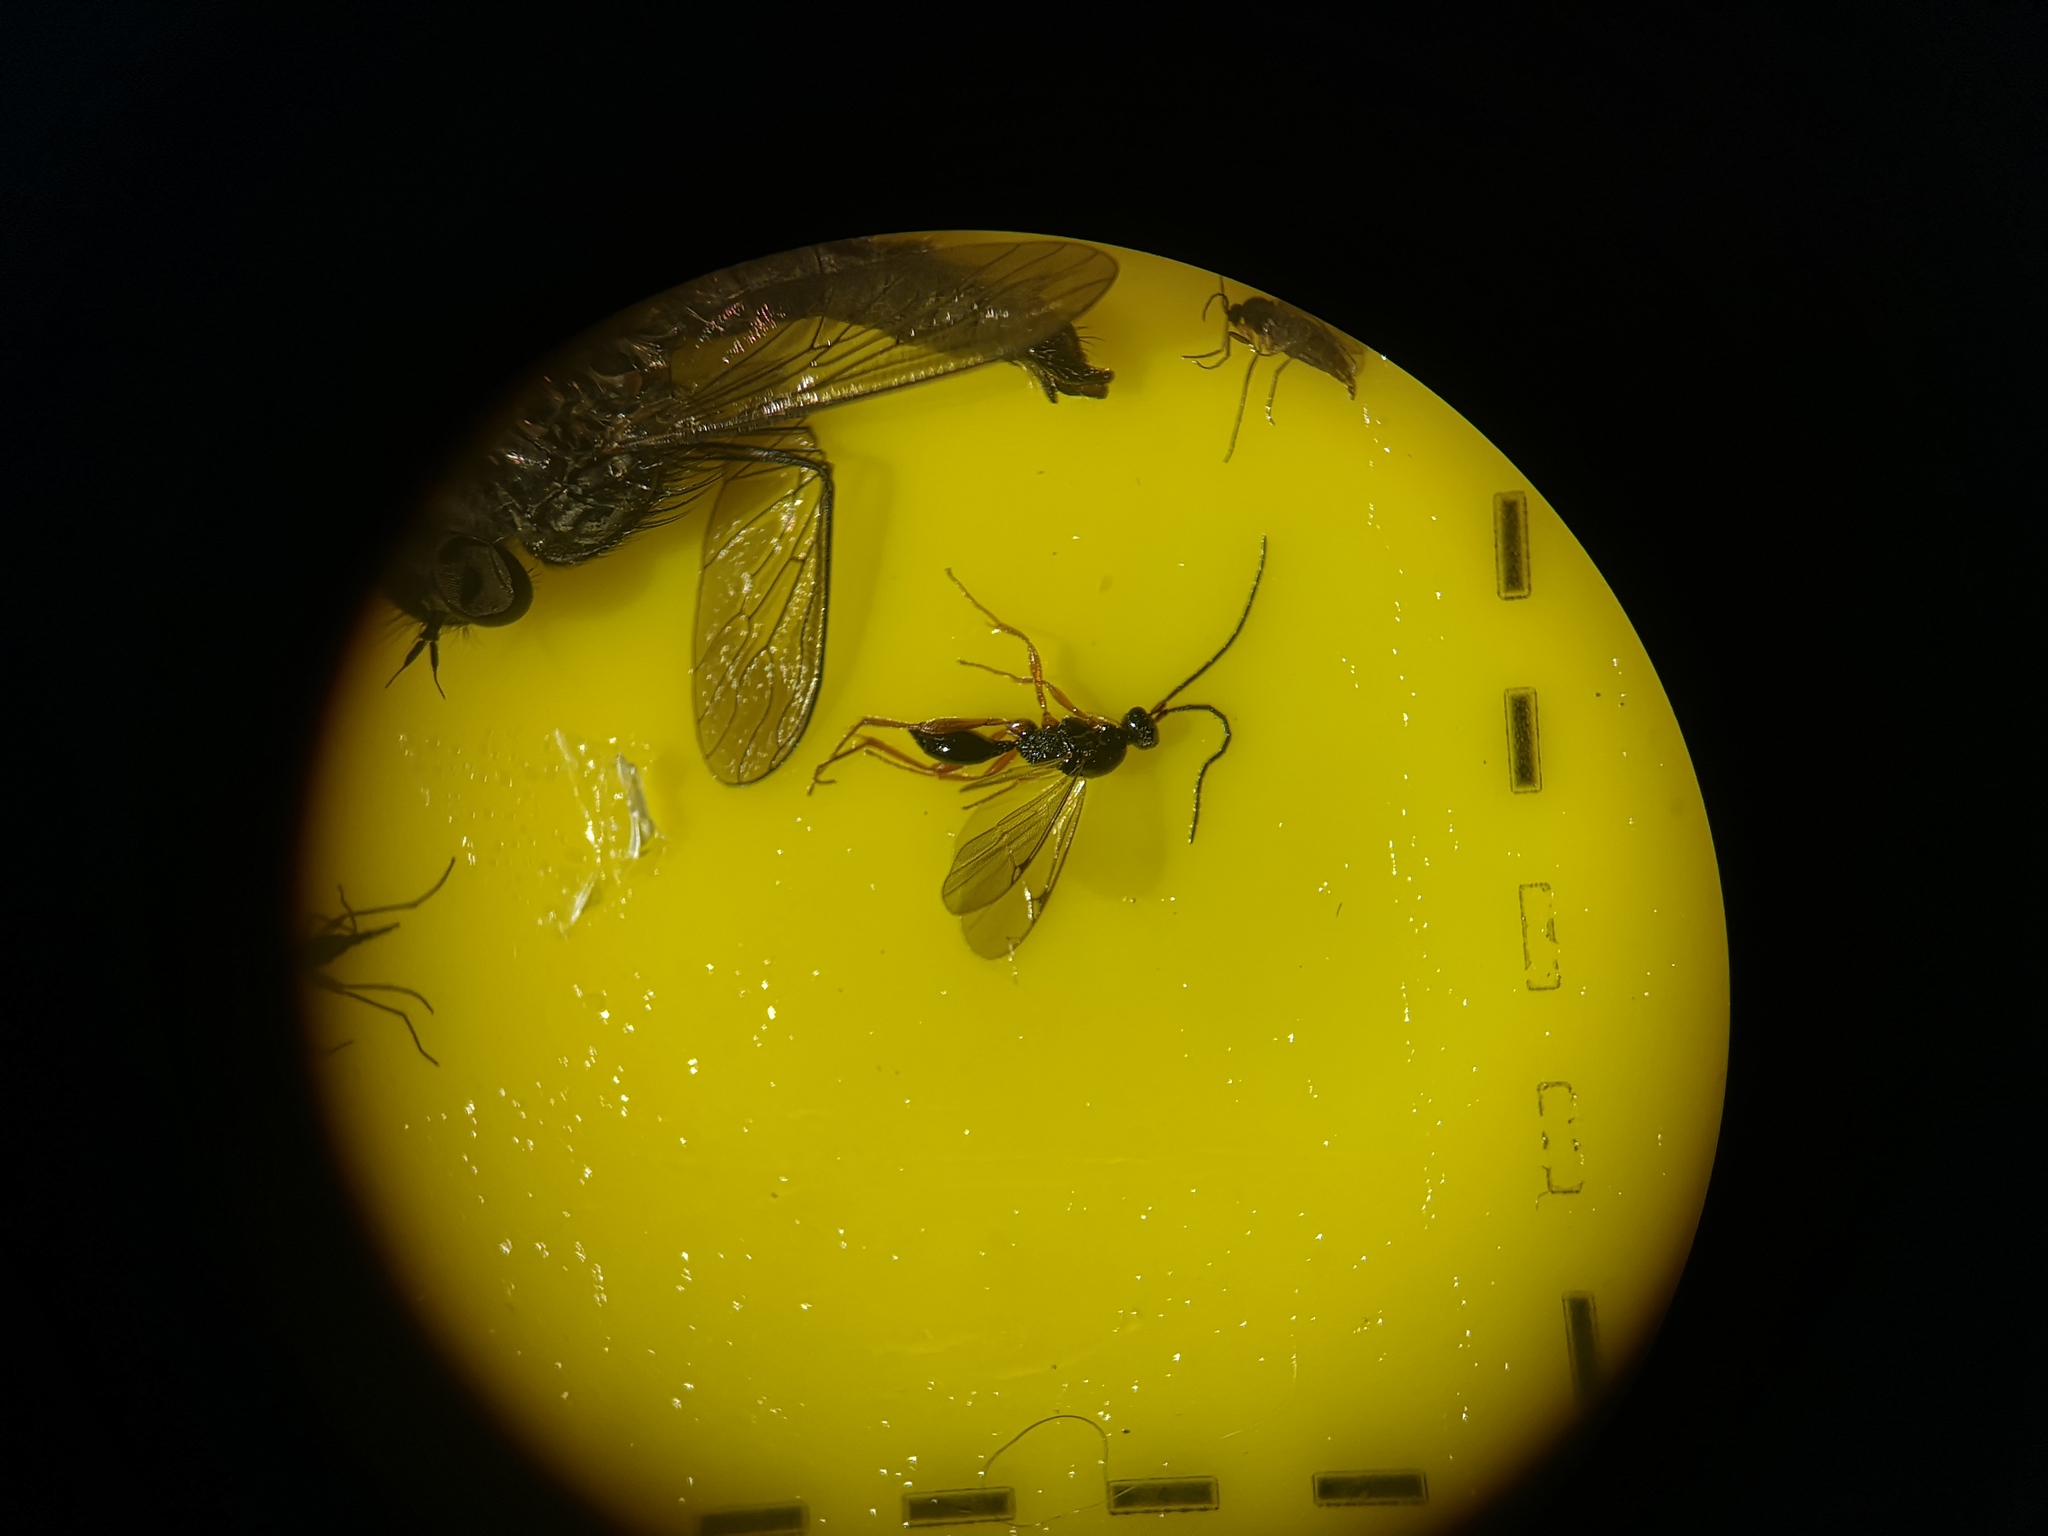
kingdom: Animalia
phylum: Arthropoda
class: Insecta
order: Hymenoptera
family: Proctotrupidae
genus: Phaneroserphus
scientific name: Phaneroserphus calcar
